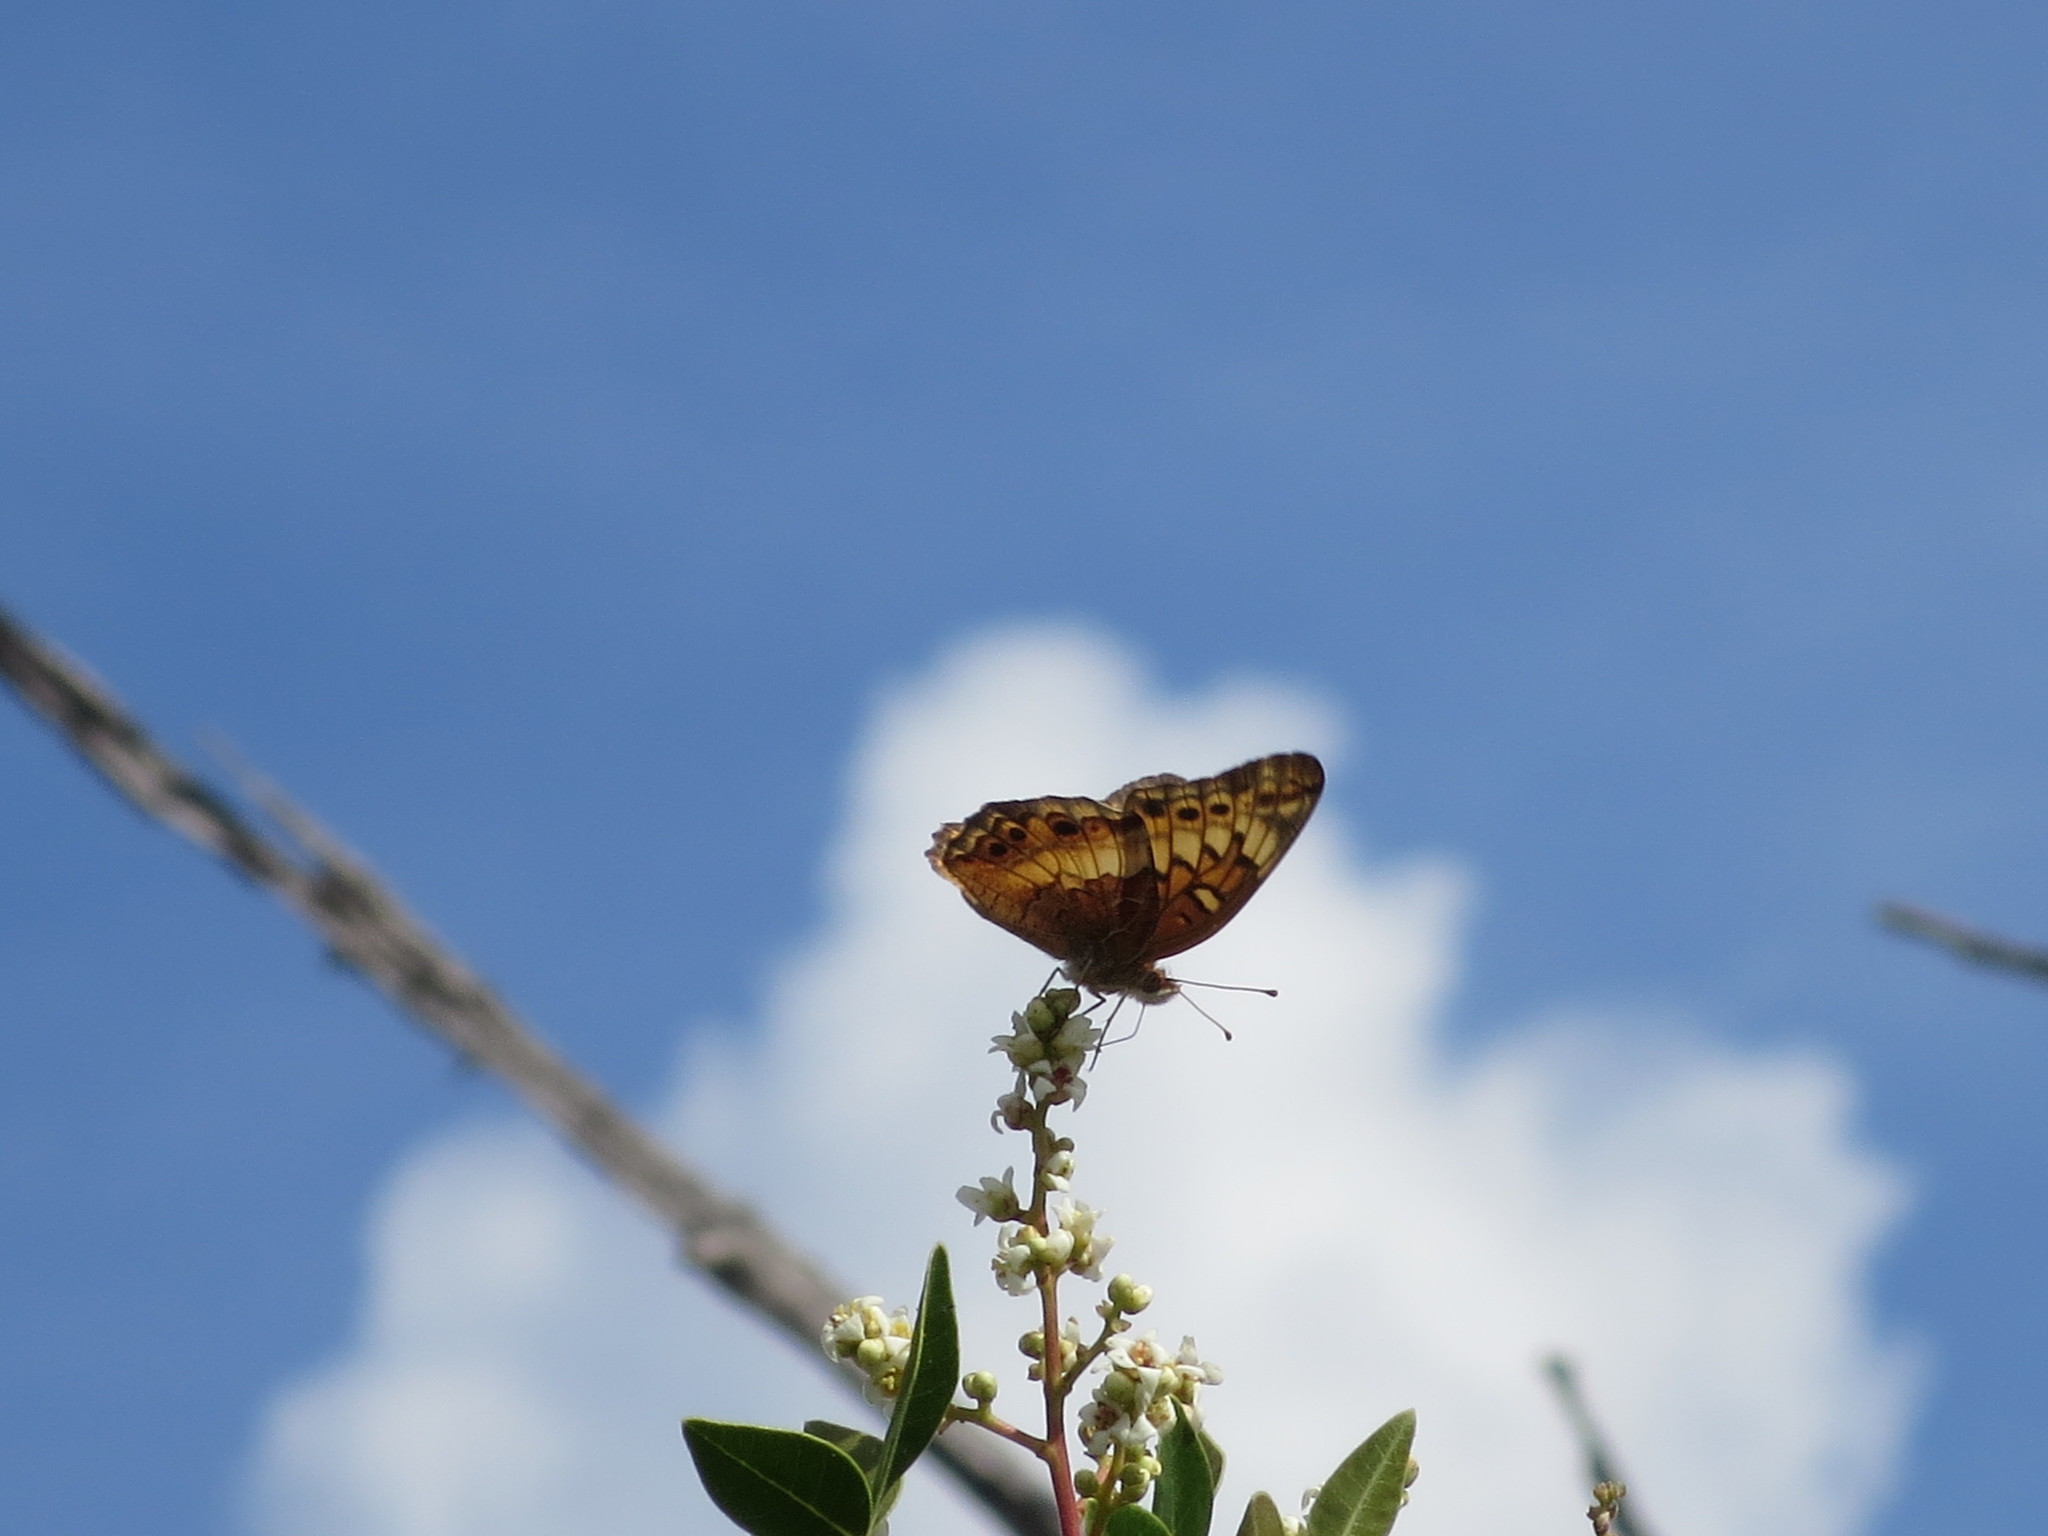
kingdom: Animalia
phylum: Arthropoda
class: Insecta
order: Lepidoptera
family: Nymphalidae
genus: Euptoieta
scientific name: Euptoieta claudia
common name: Variegated fritillary
